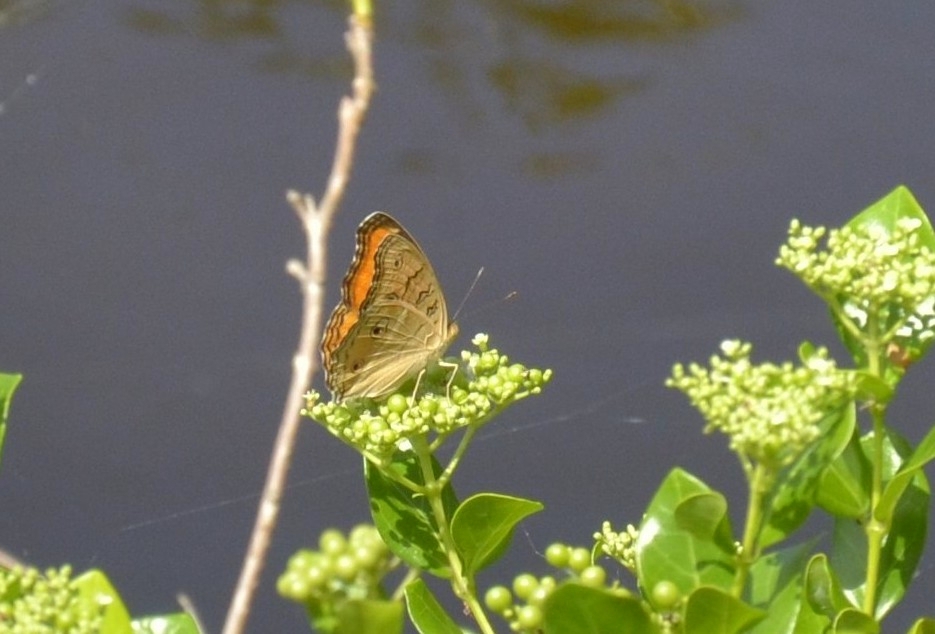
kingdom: Animalia
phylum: Arthropoda
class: Insecta
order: Lepidoptera
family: Nymphalidae
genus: Junonia
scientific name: Junonia almana
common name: Peacock pansy
